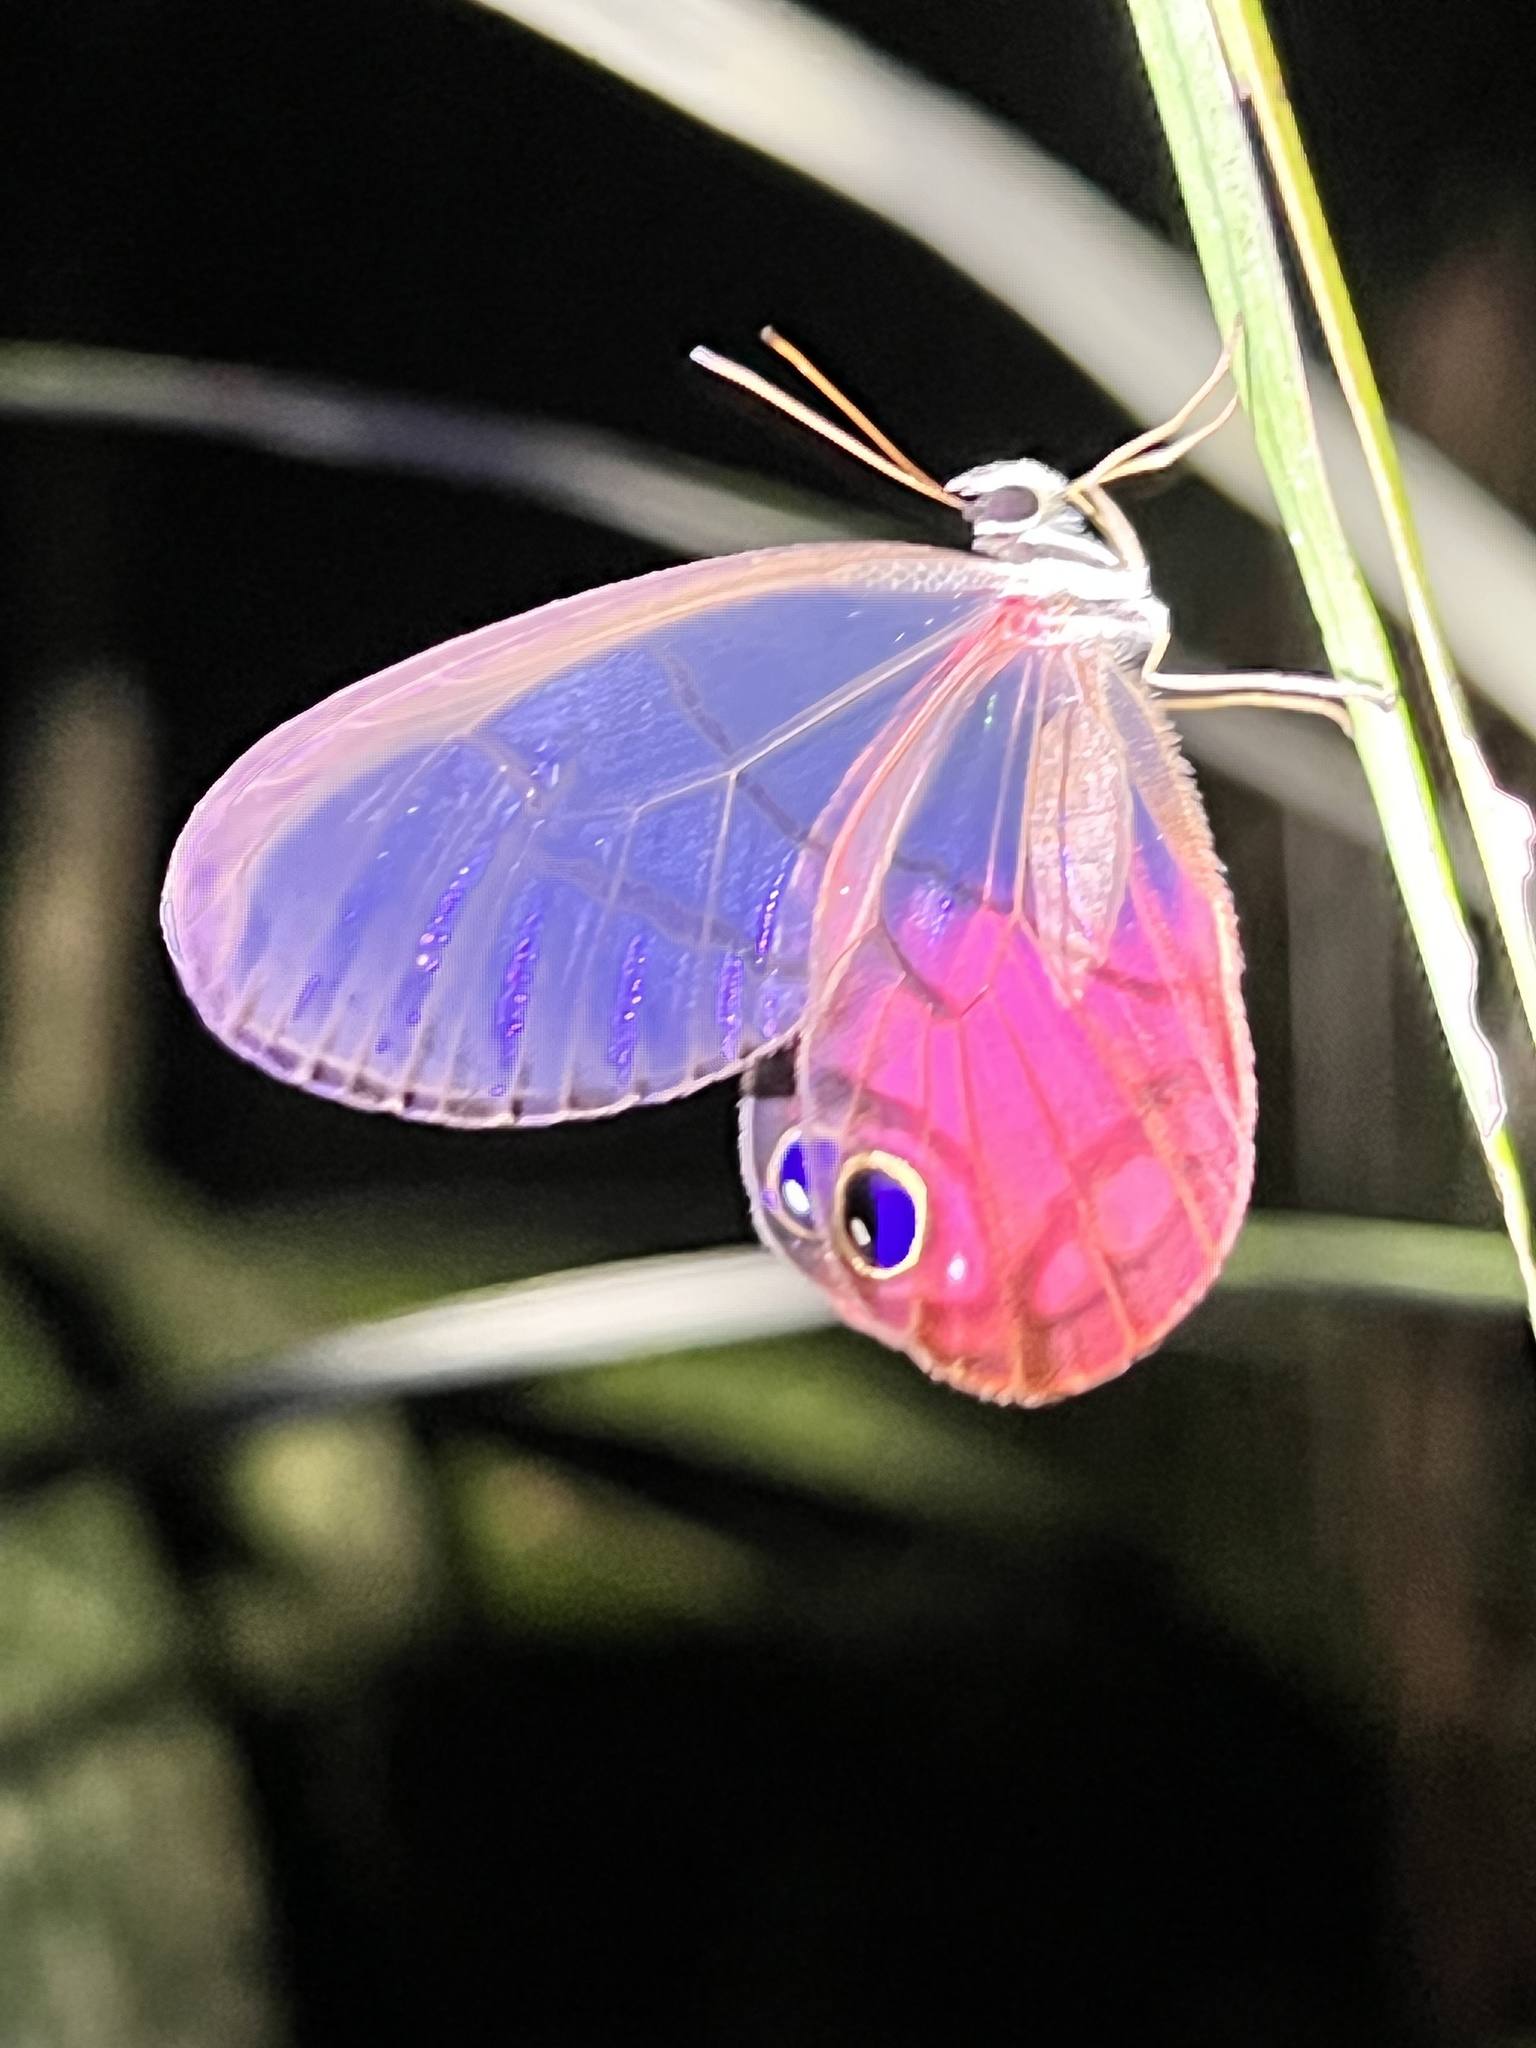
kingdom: Animalia
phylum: Arthropoda
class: Insecta
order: Lepidoptera
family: Nymphalidae
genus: Cithaerias
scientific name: Cithaerias pireta
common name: Rusted clearwing-satyr
